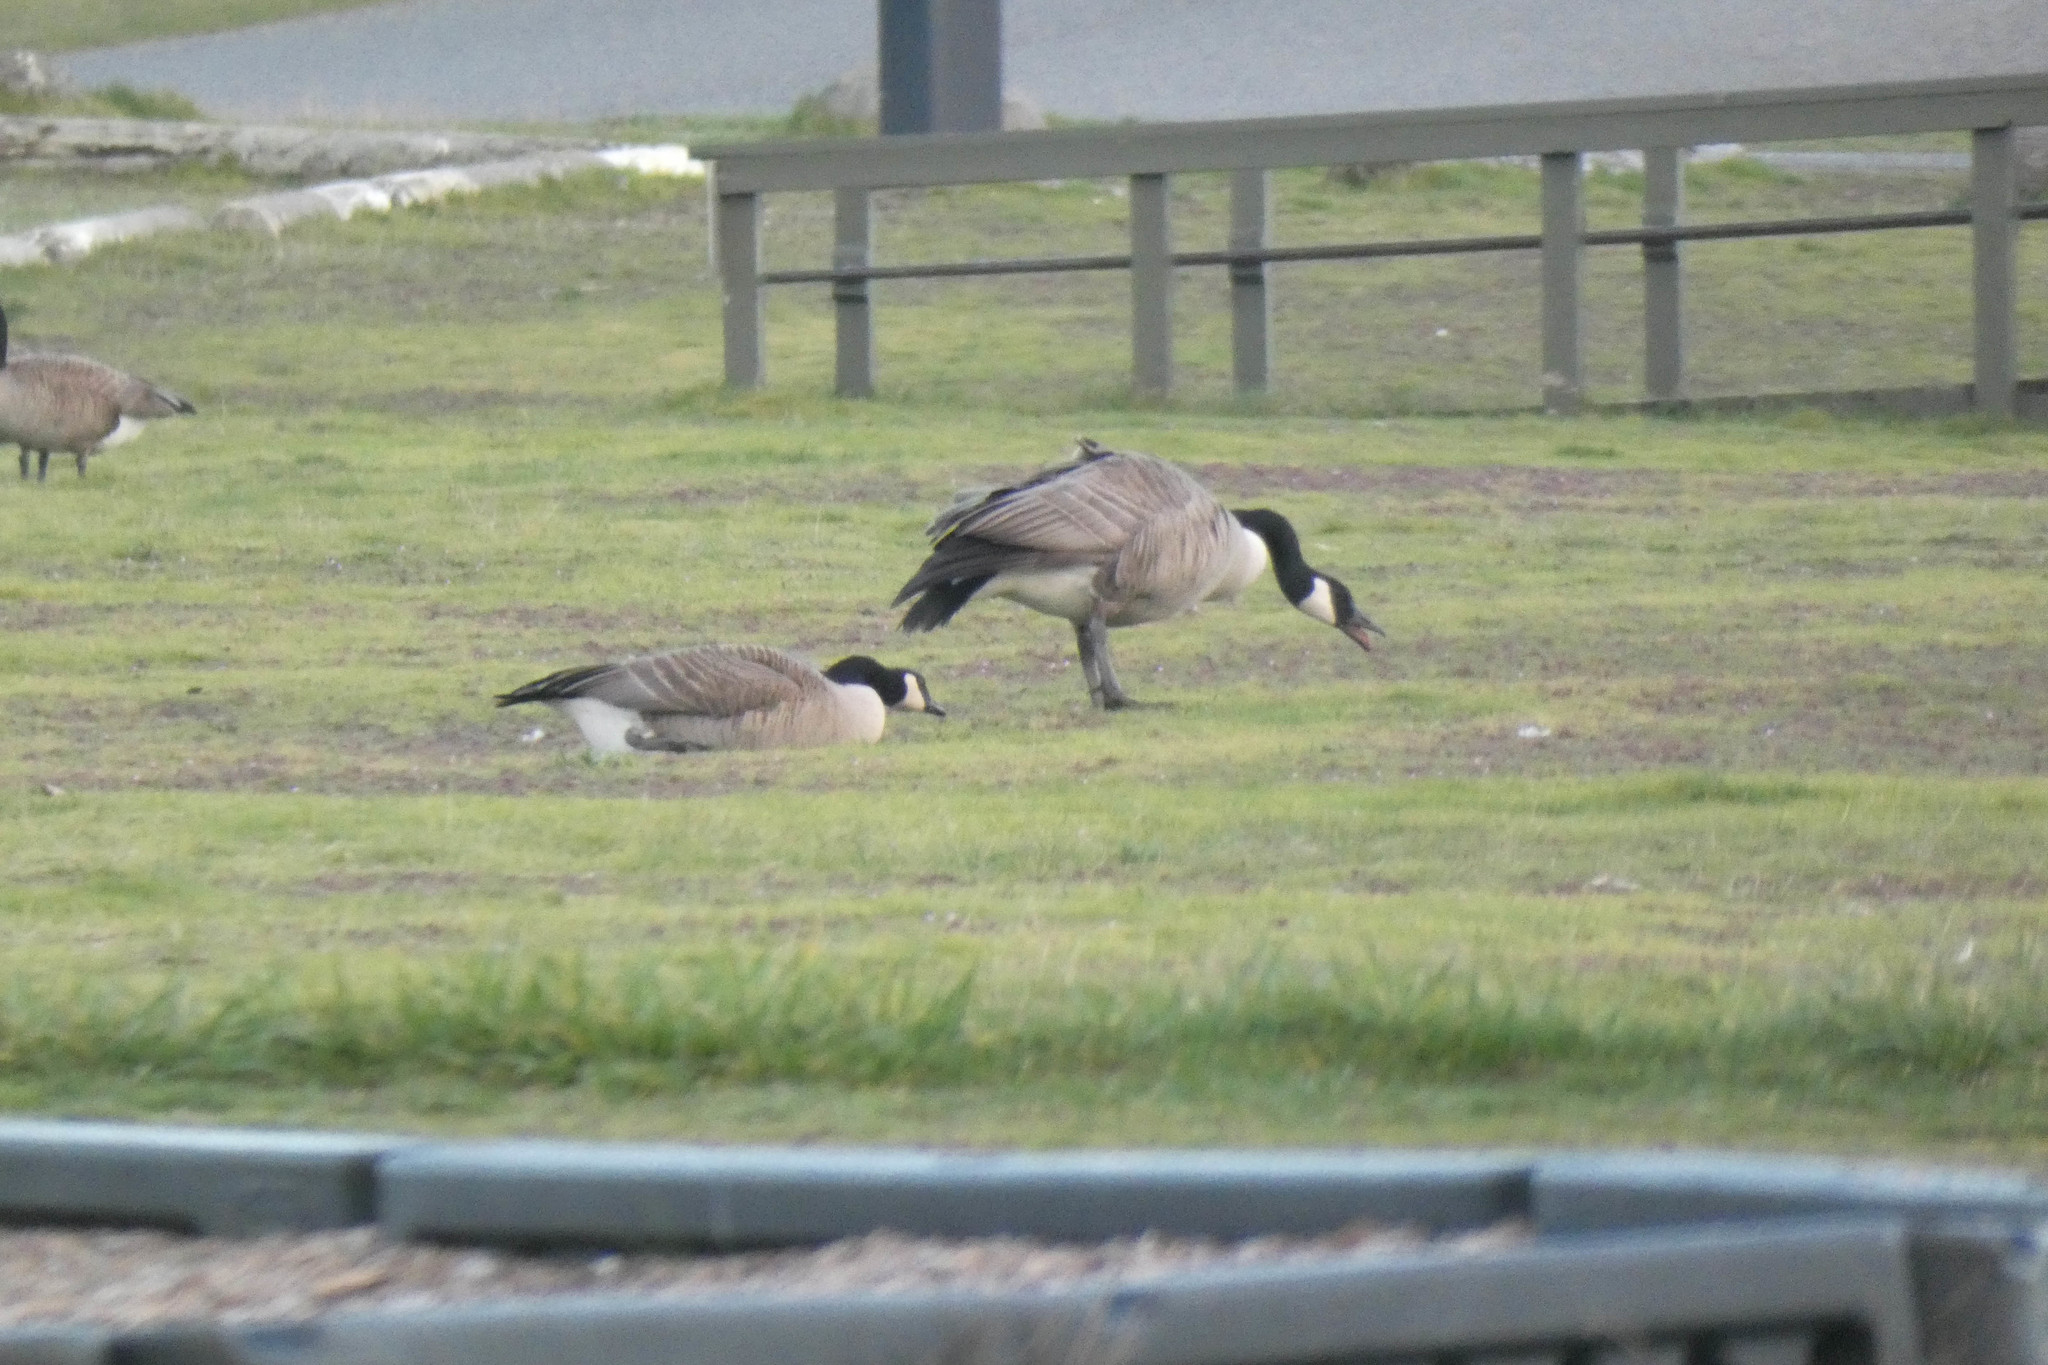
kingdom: Animalia
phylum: Chordata
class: Aves
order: Anseriformes
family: Anatidae
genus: Branta
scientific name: Branta canadensis
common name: Canada goose
